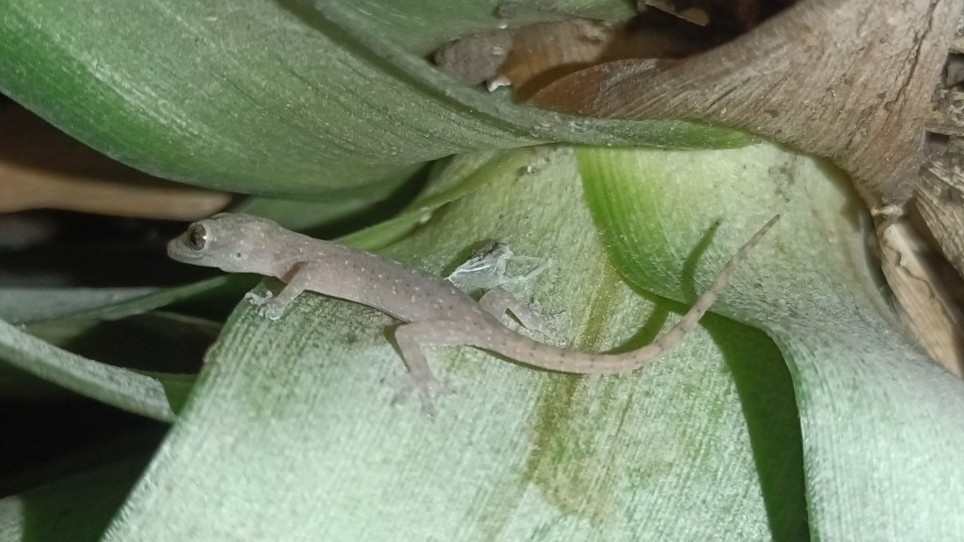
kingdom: Animalia
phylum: Chordata
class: Squamata
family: Gekkonidae
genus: Hemidactylus
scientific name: Hemidactylus frenatus
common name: Common house gecko
